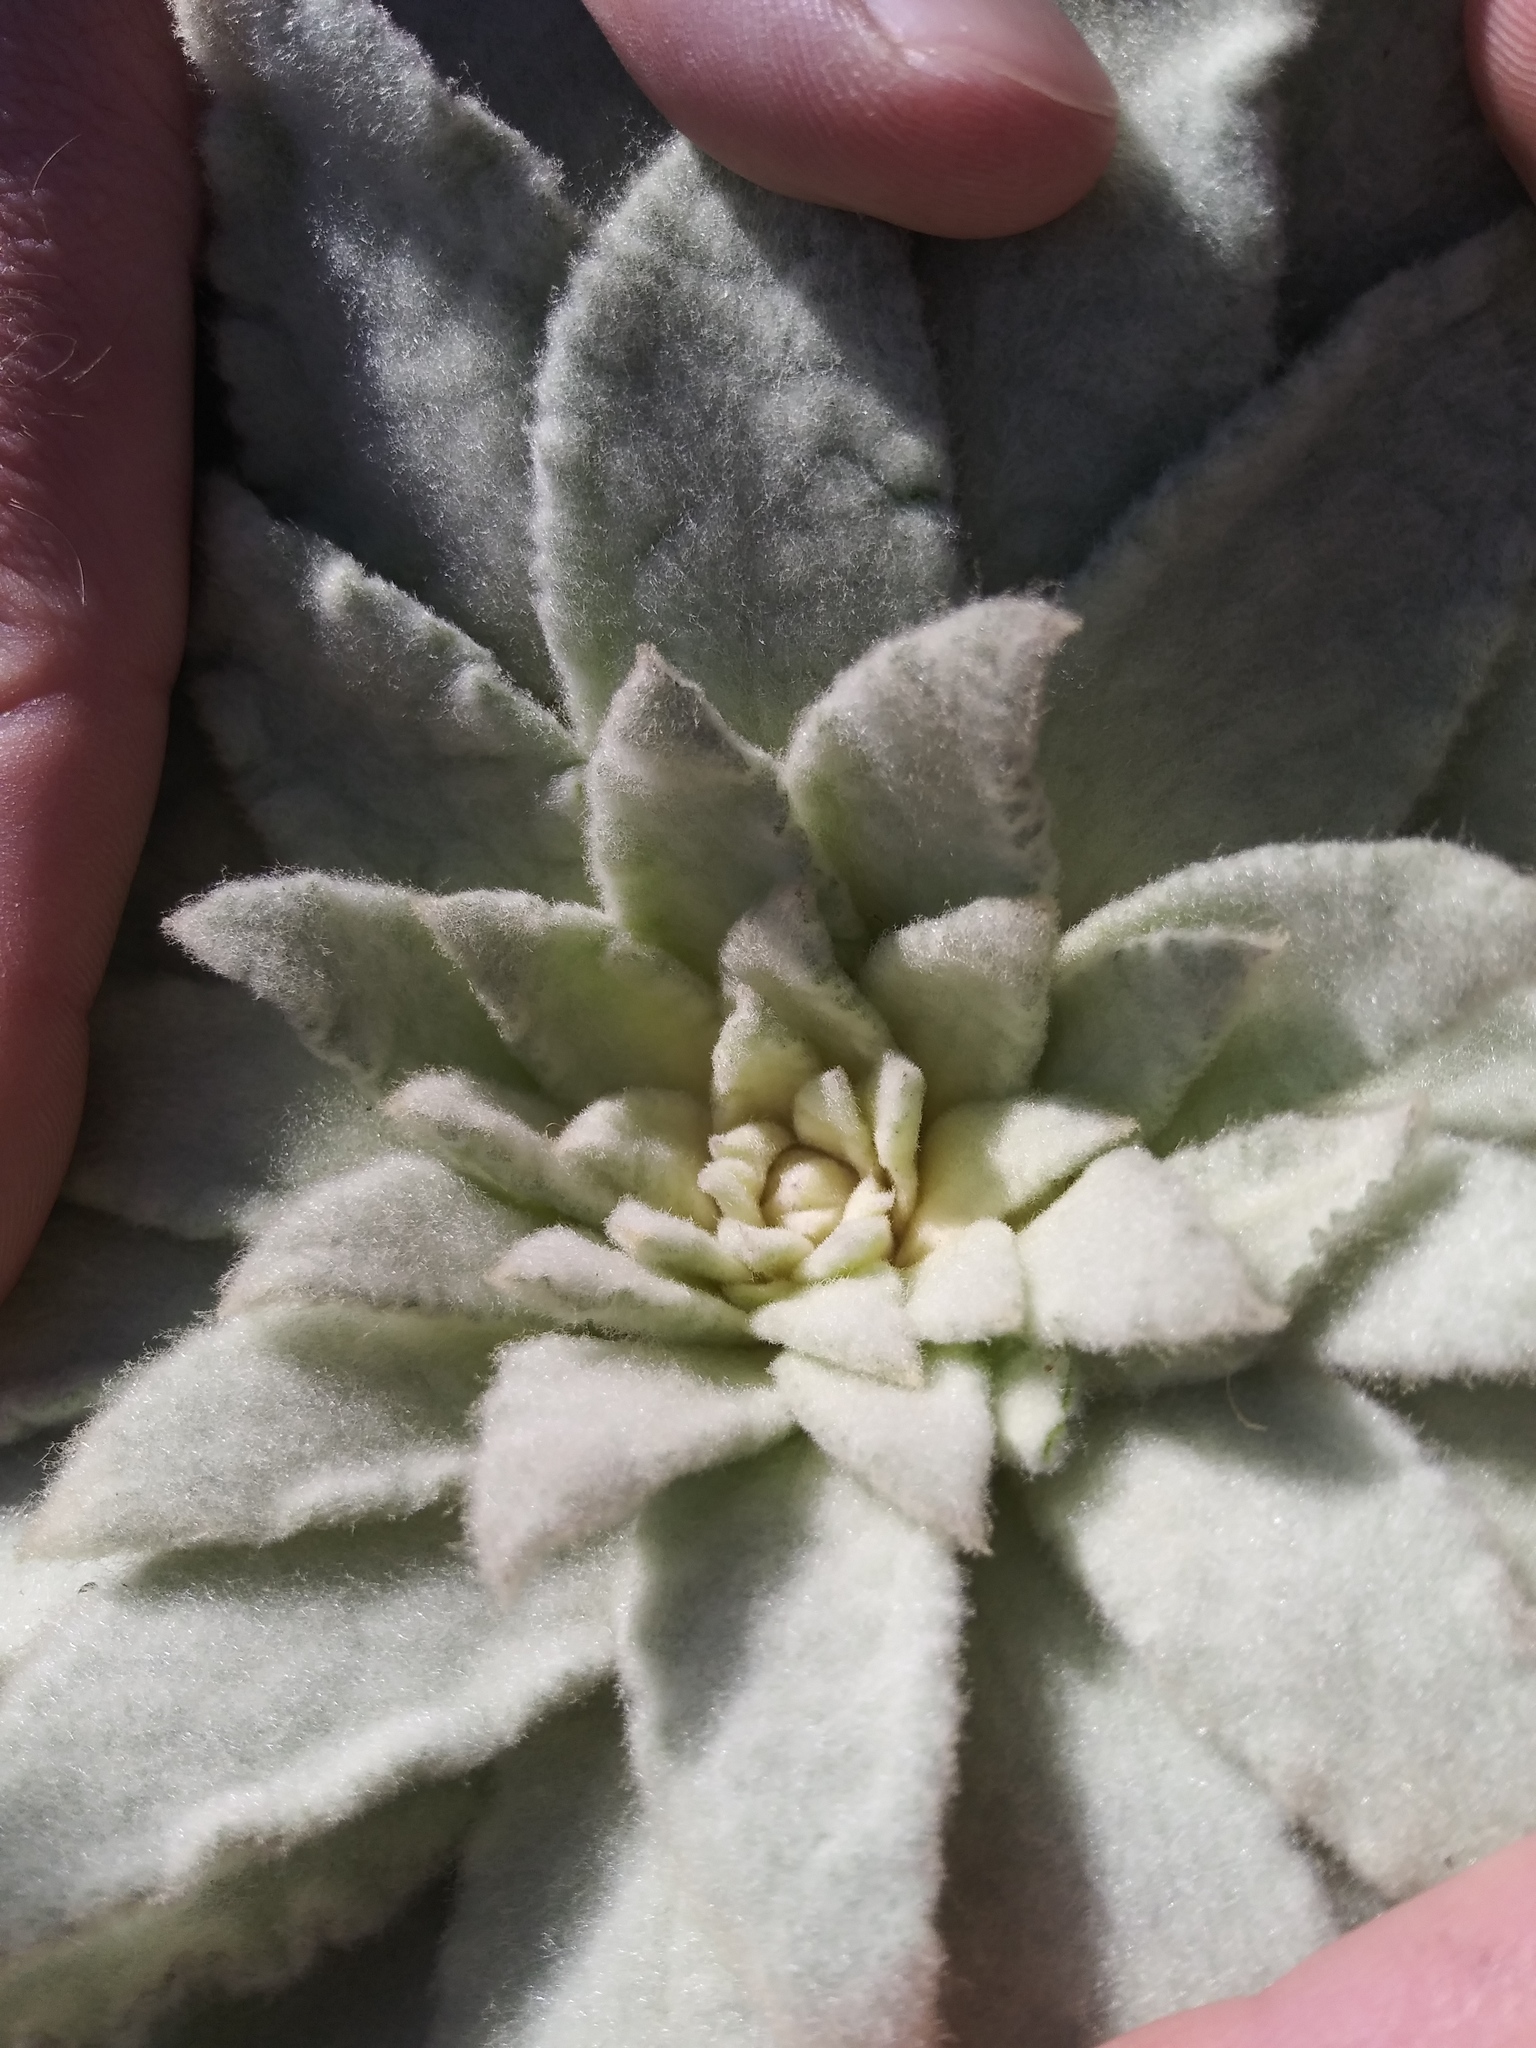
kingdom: Plantae
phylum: Tracheophyta
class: Magnoliopsida
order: Lamiales
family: Scrophulariaceae
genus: Verbascum
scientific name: Verbascum thapsus
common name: Common mullein
